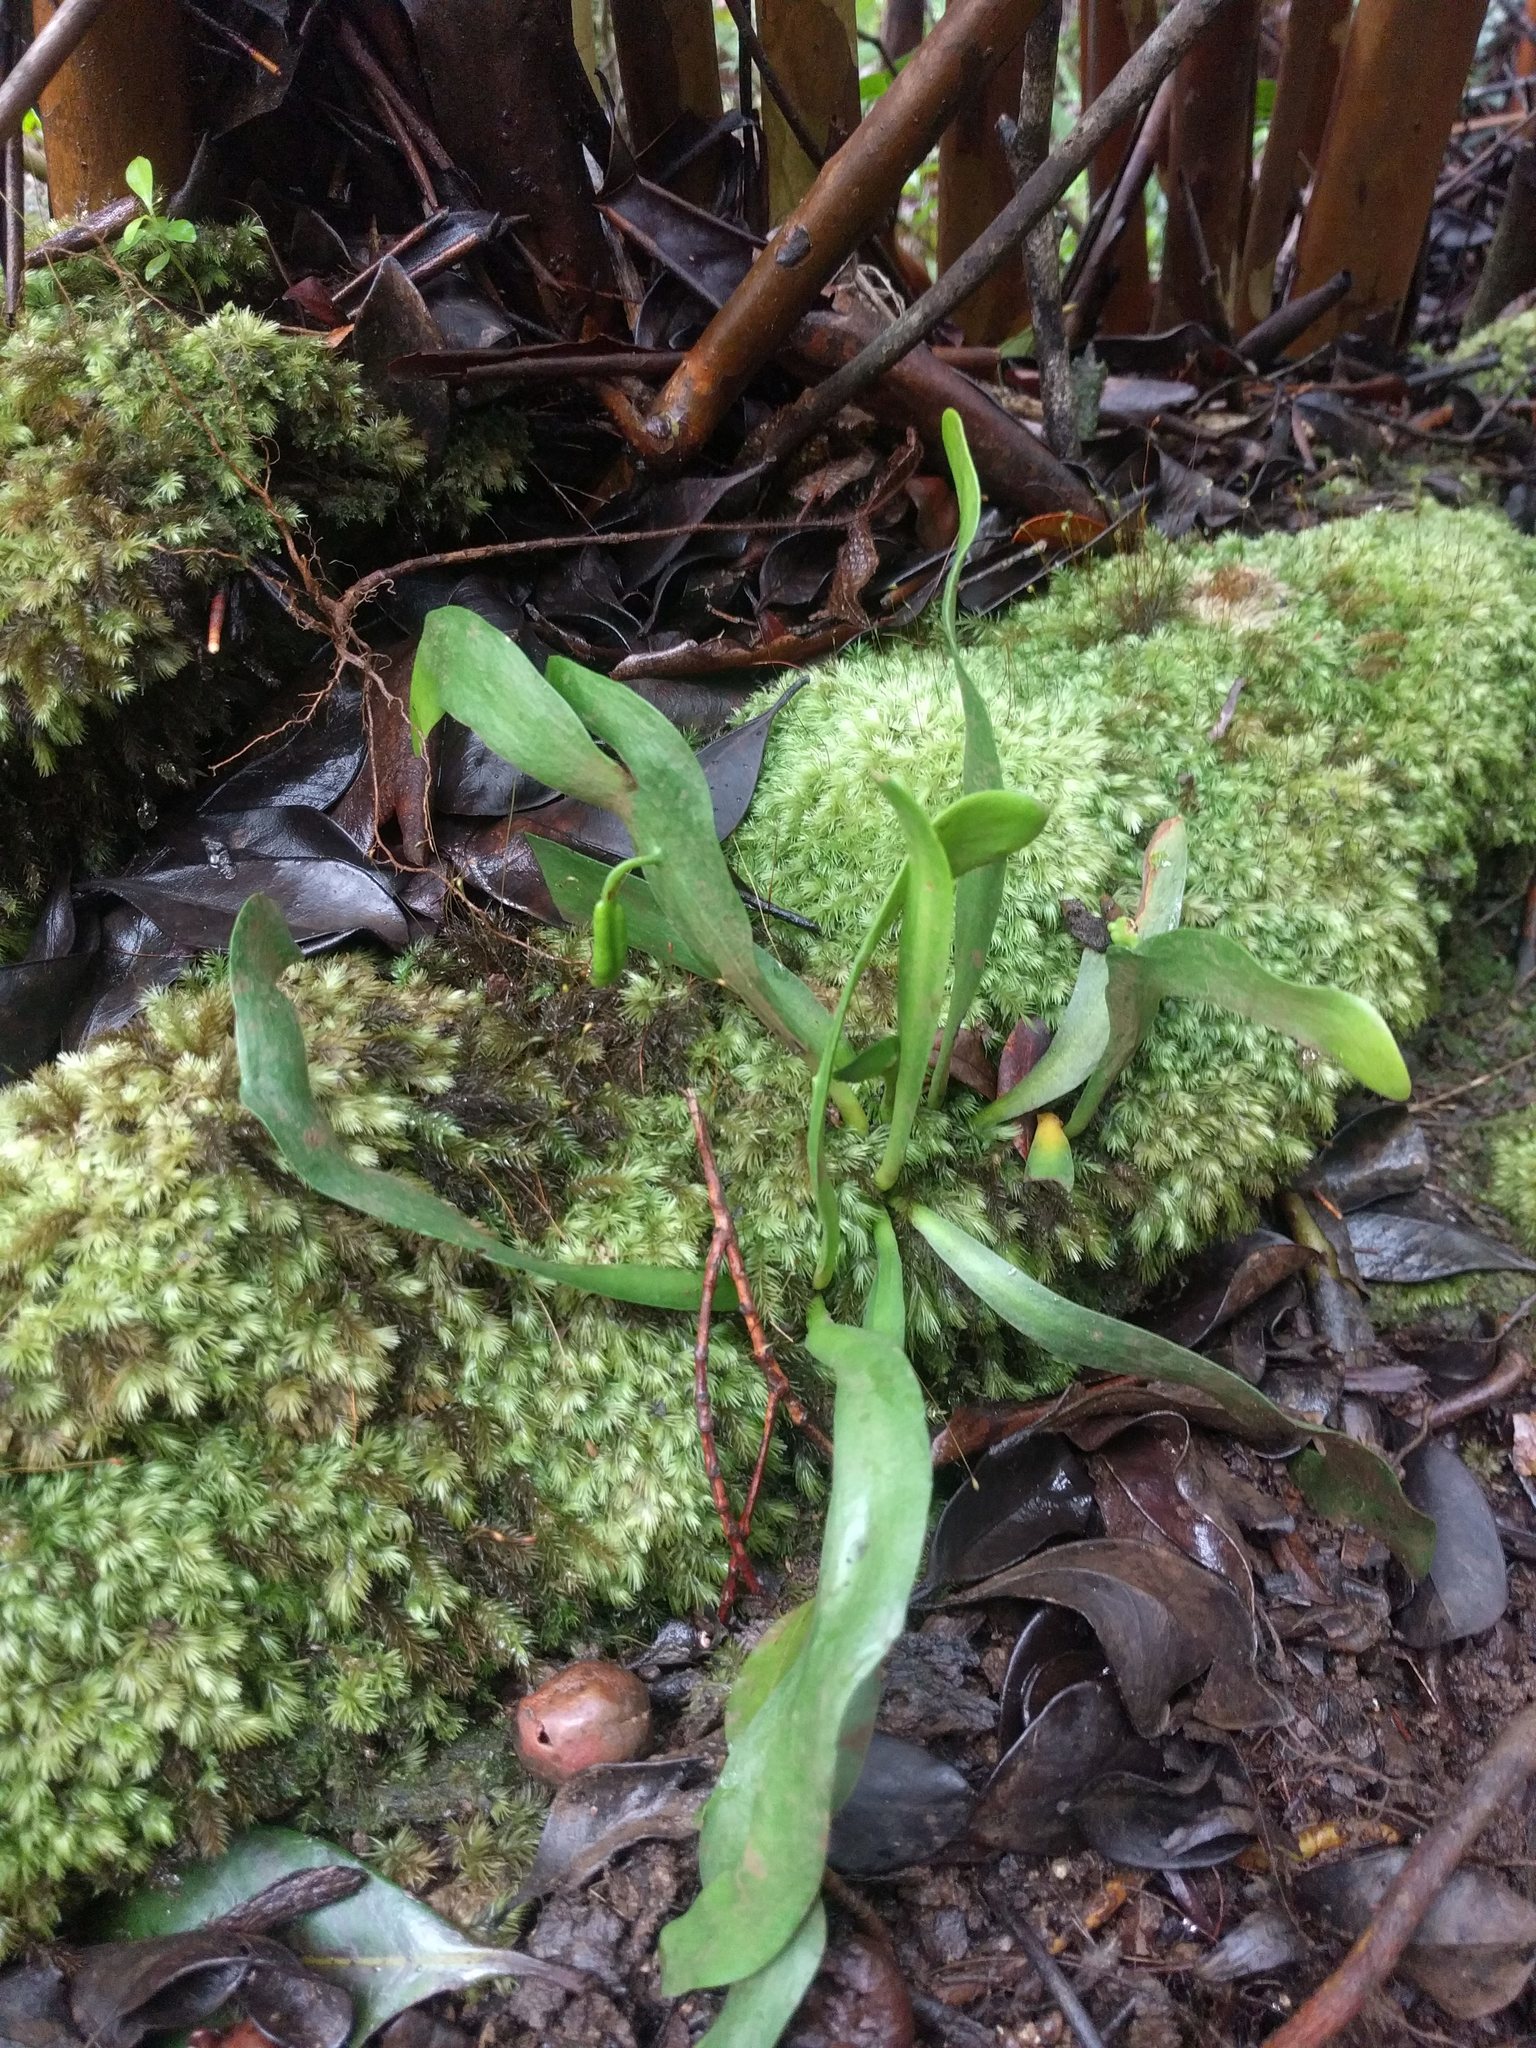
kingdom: Plantae
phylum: Tracheophyta
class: Polypodiopsida
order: Ophioglossales
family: Ophioglossaceae
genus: Ophioderma
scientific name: Ophioderma falcatum
